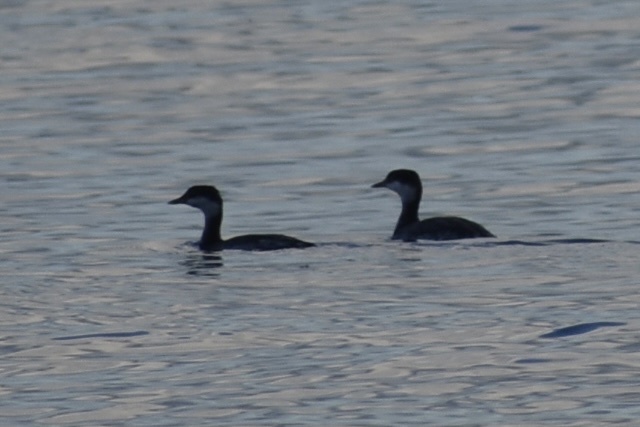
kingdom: Animalia
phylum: Chordata
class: Aves
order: Podicipediformes
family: Podicipedidae
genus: Podiceps
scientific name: Podiceps auritus
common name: Horned grebe
